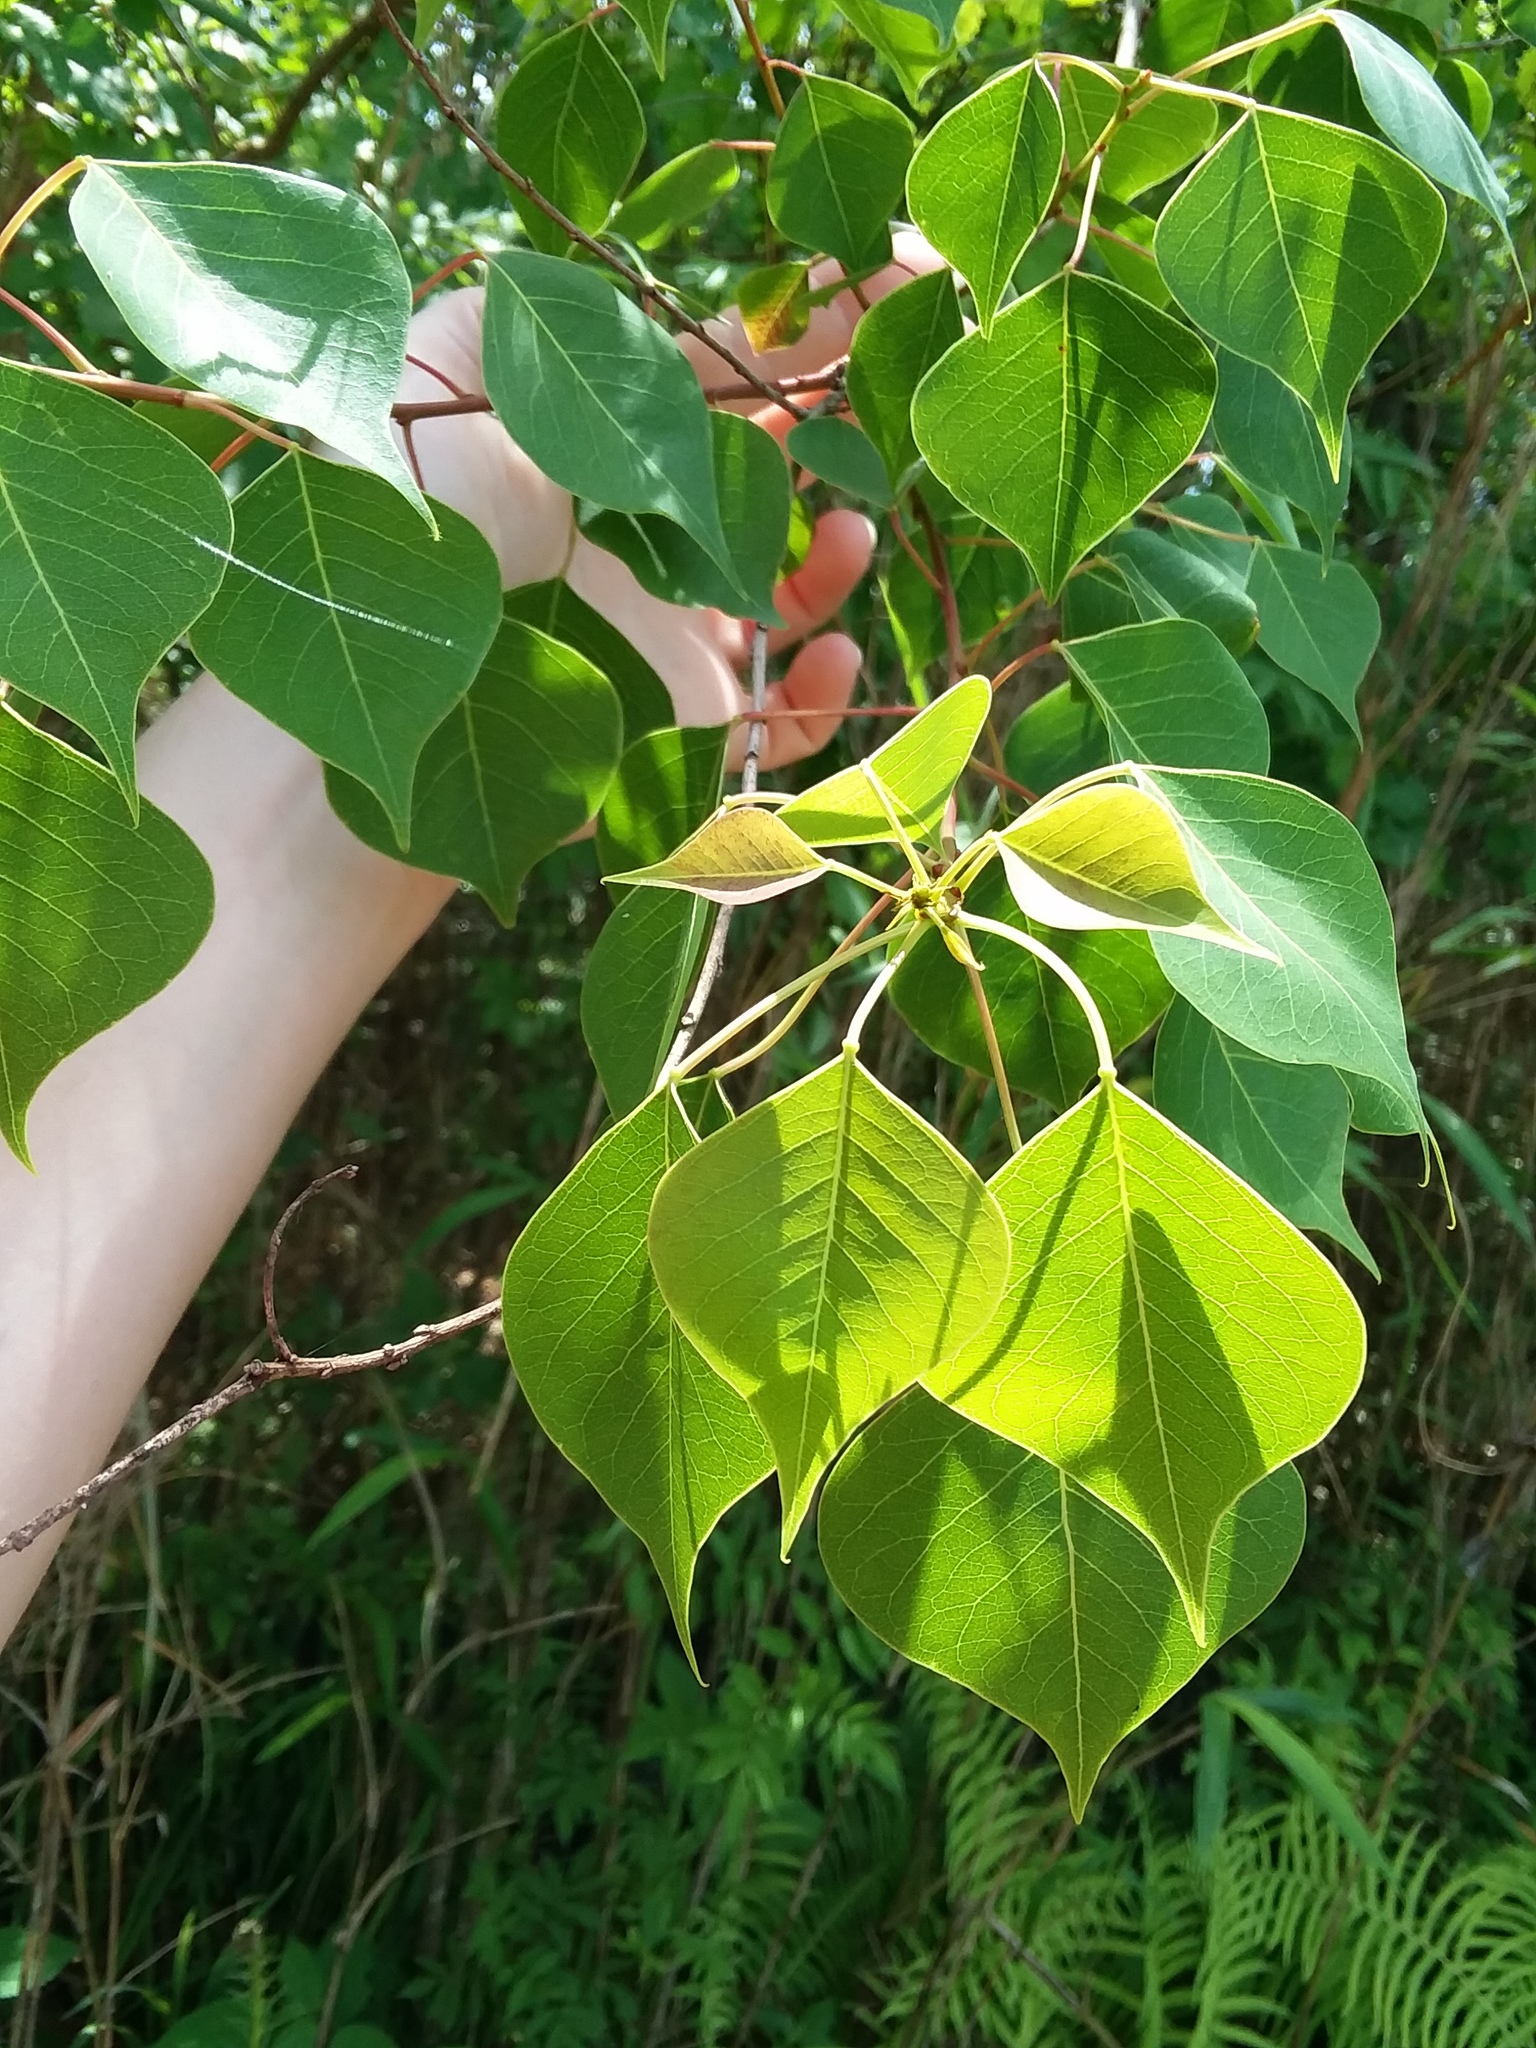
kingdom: Plantae
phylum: Tracheophyta
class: Magnoliopsida
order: Malpighiales
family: Euphorbiaceae
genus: Triadica
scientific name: Triadica sebifera
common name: Chinese tallow
